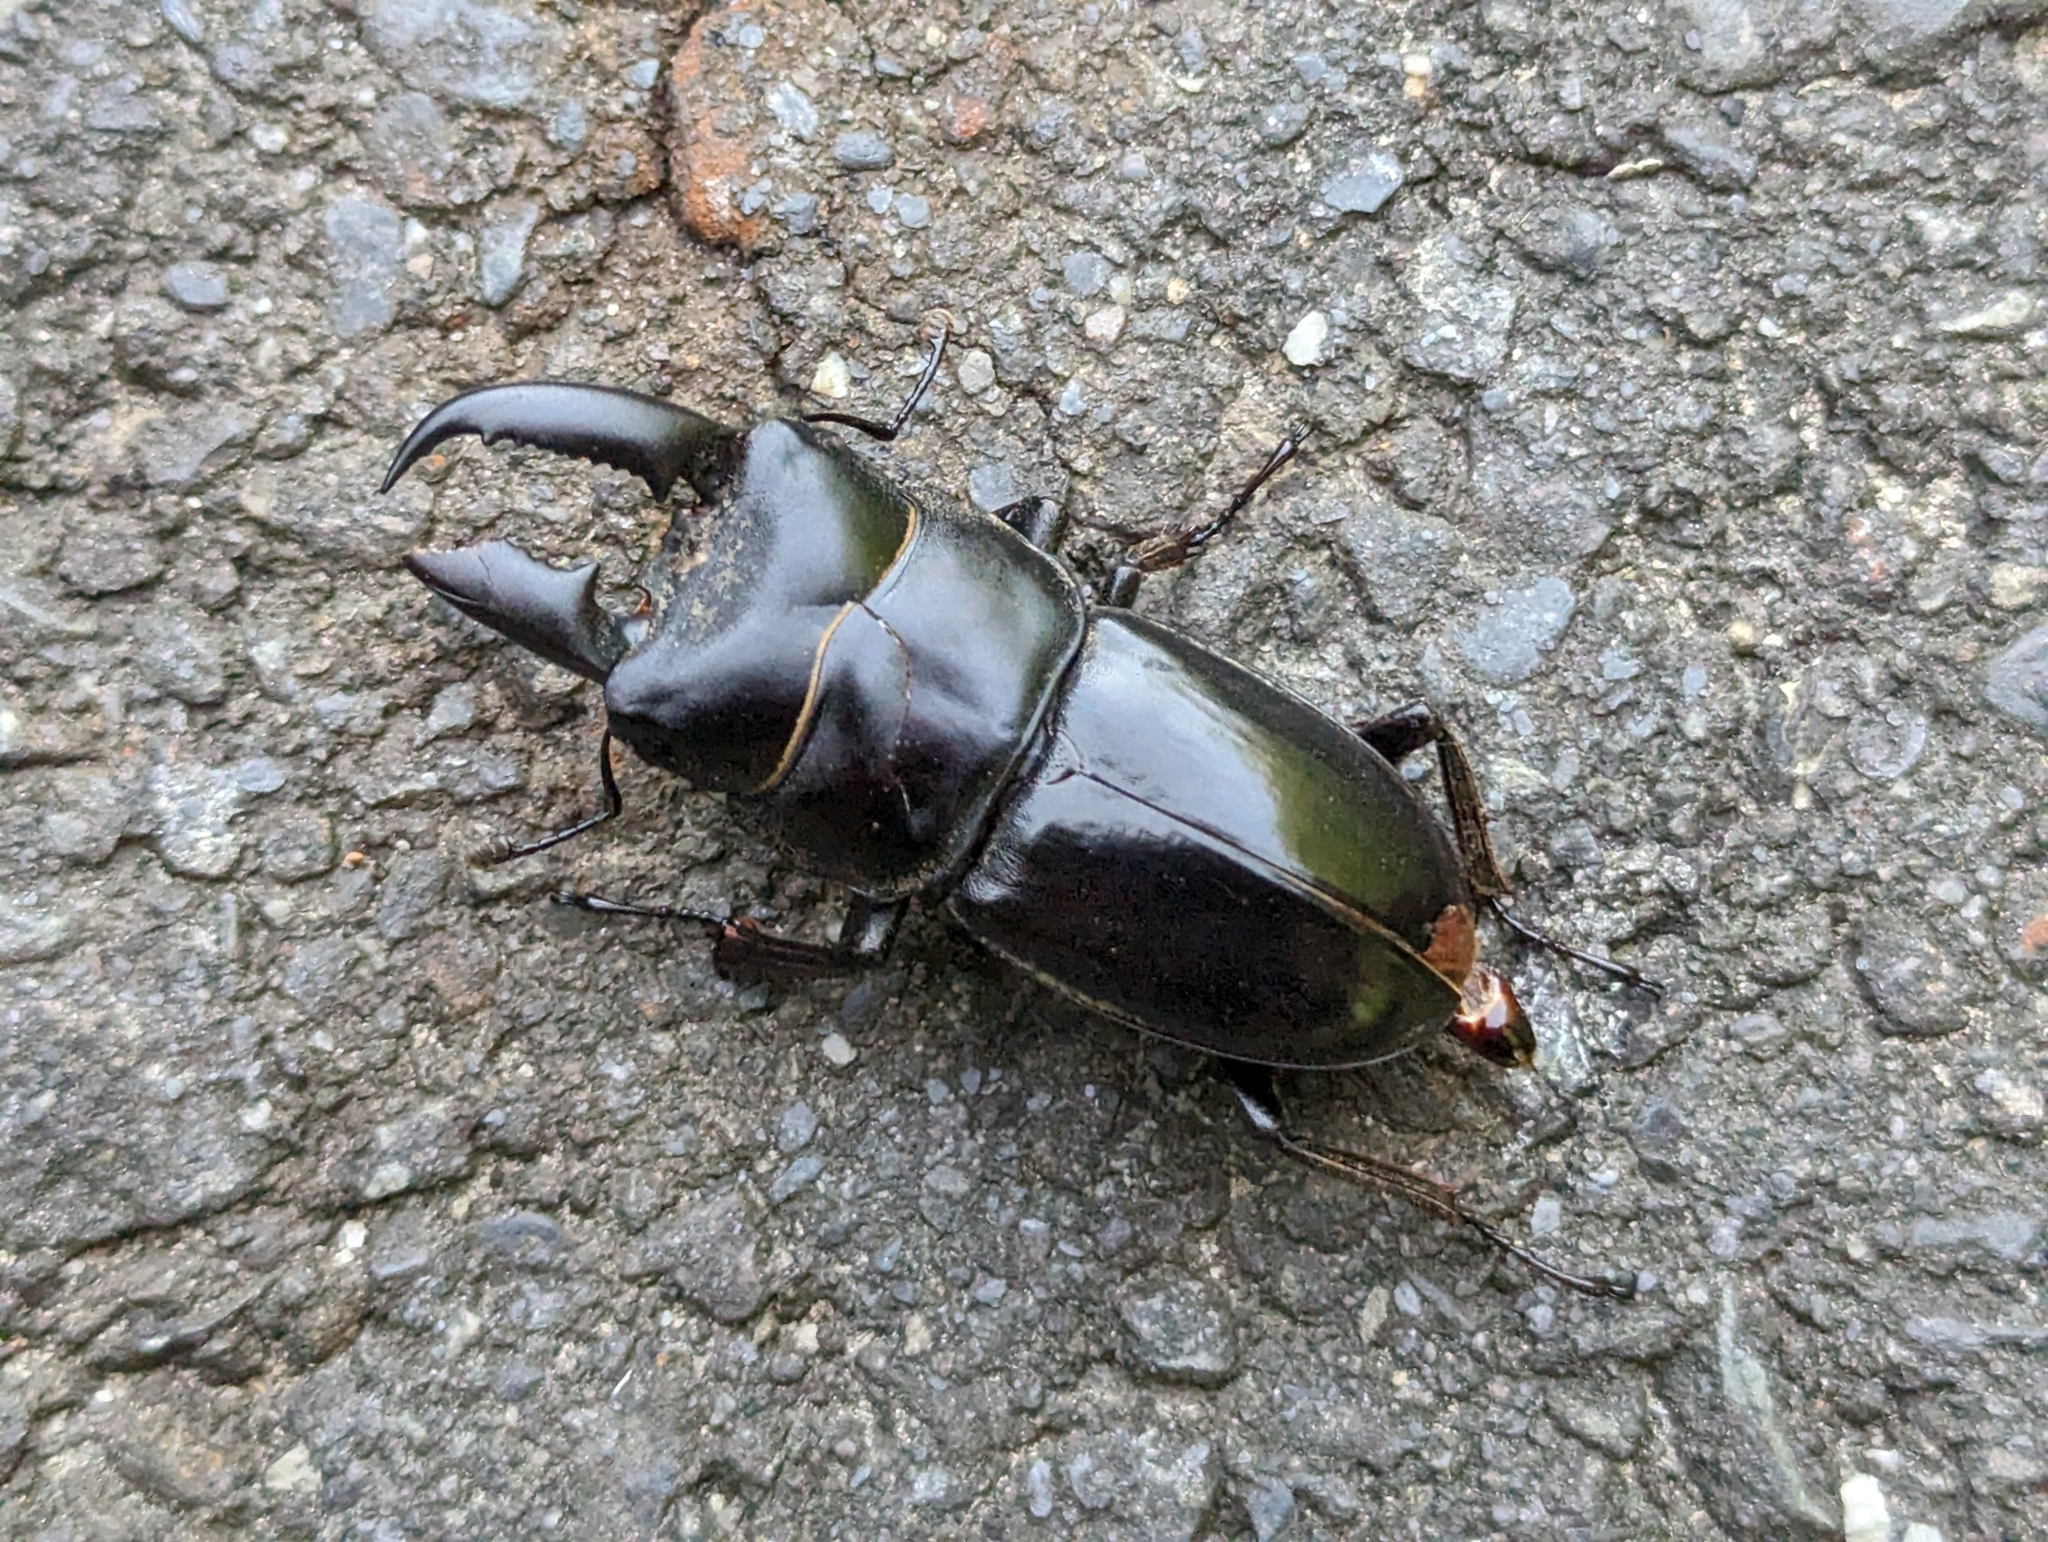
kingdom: Animalia
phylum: Arthropoda
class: Insecta
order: Coleoptera
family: Lucanidae
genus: Serrognathus
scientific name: Serrognathus titanus
